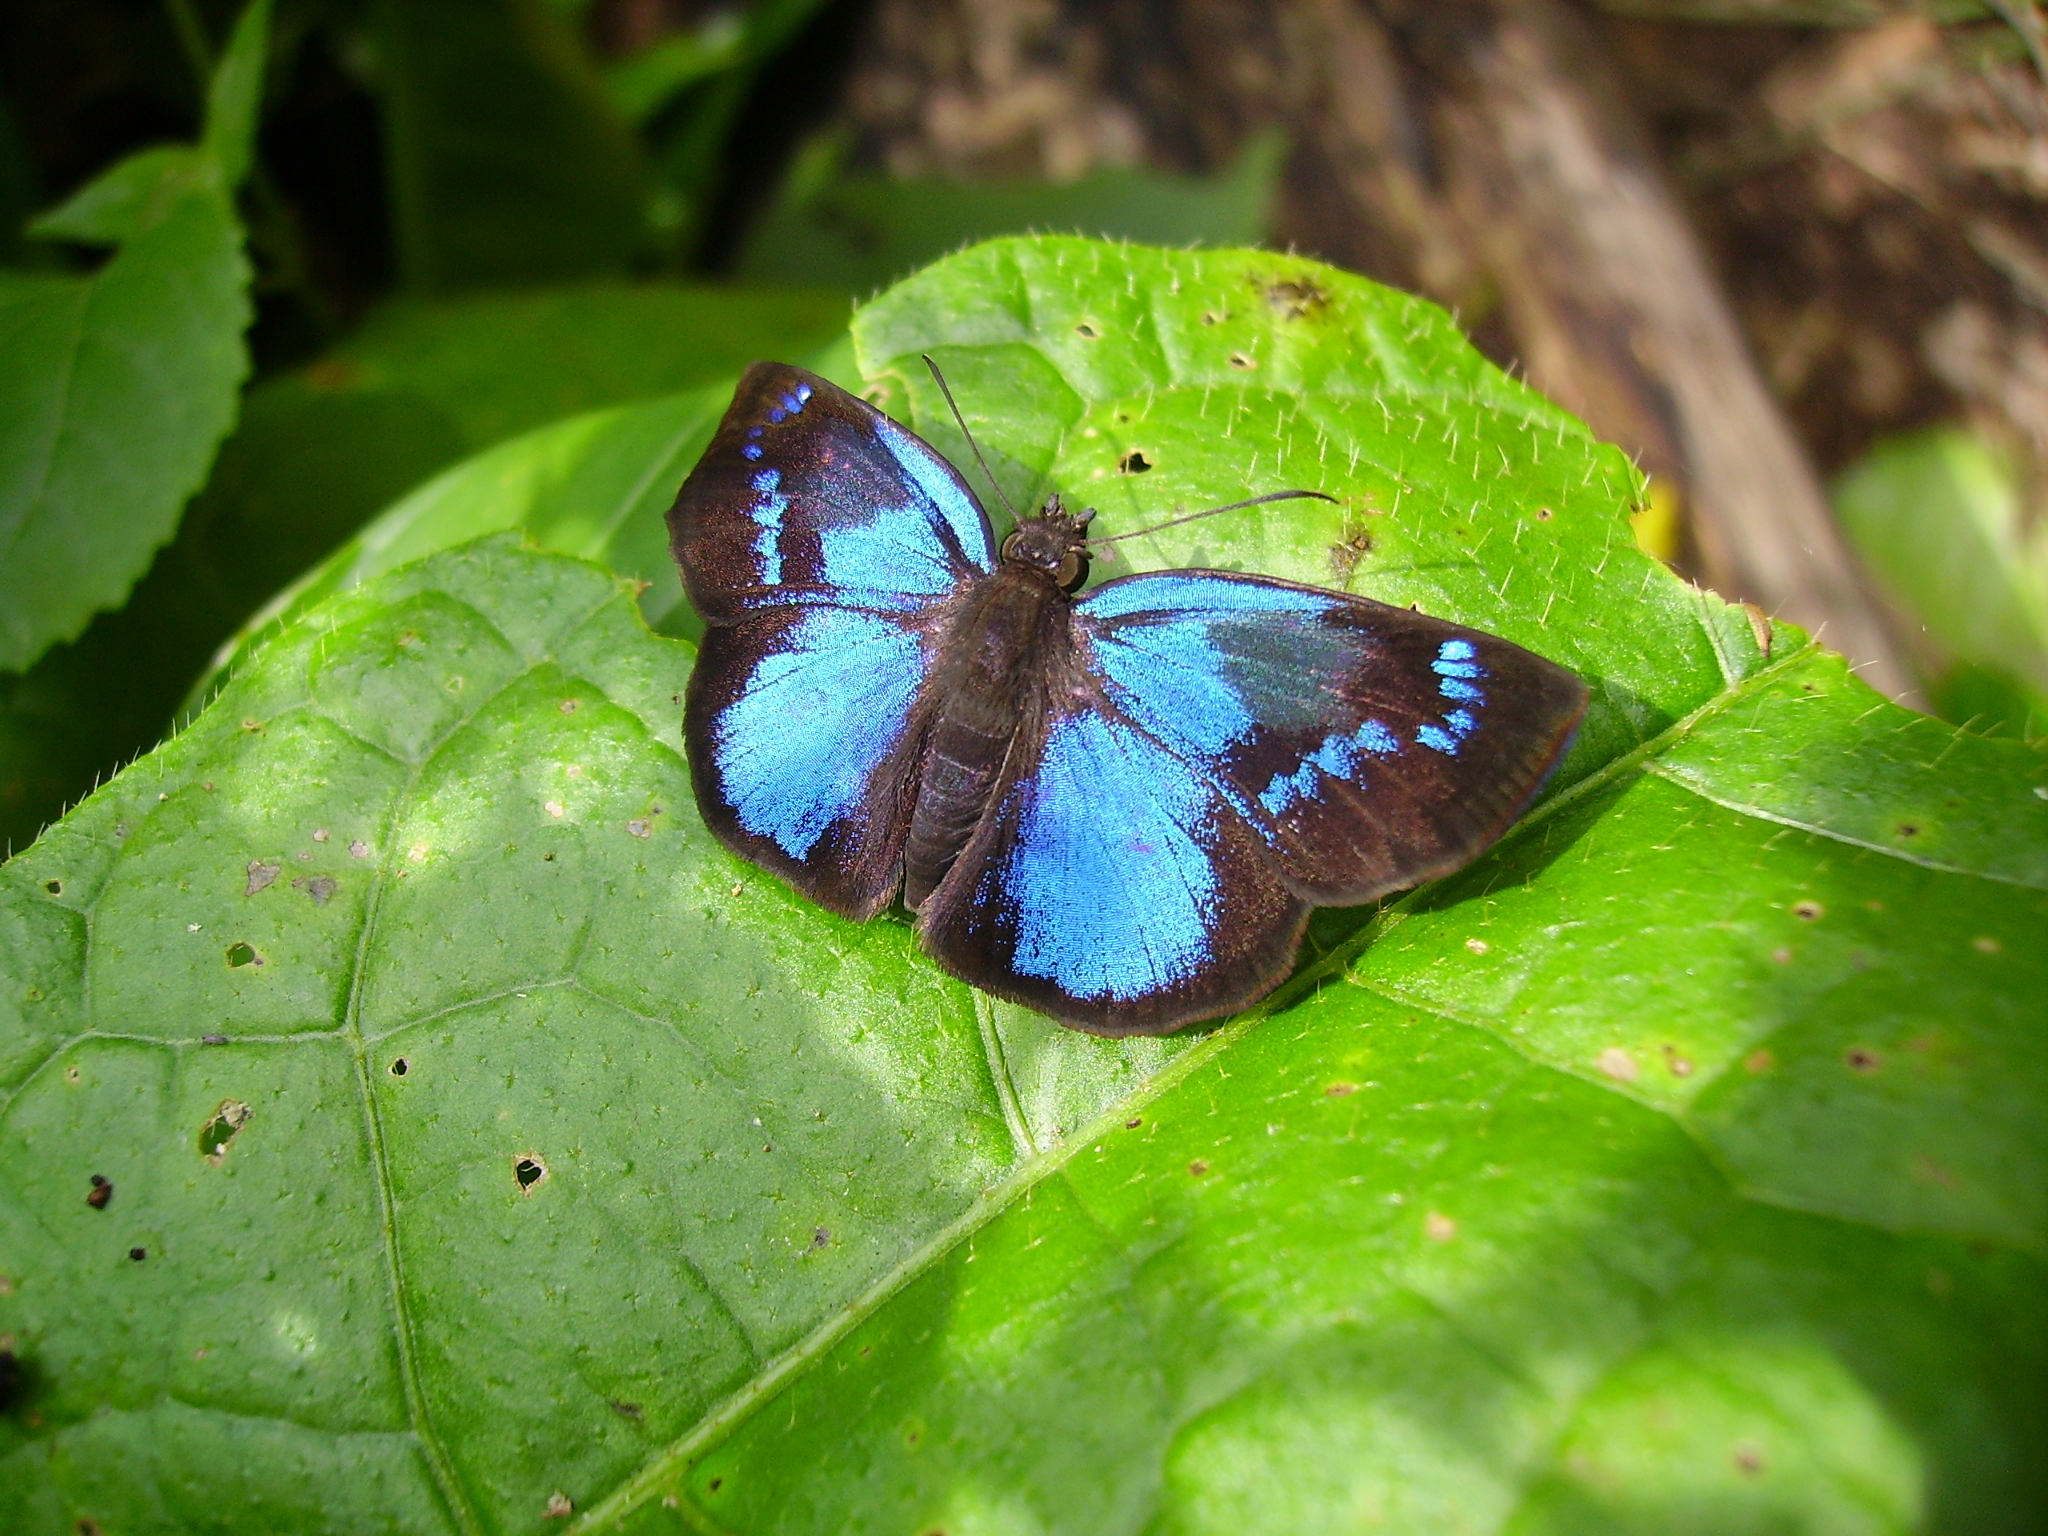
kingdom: Animalia
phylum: Arthropoda
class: Insecta
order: Lepidoptera
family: Hesperiidae
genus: Paches
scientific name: Paches loxus
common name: Glorious blue-skipper
